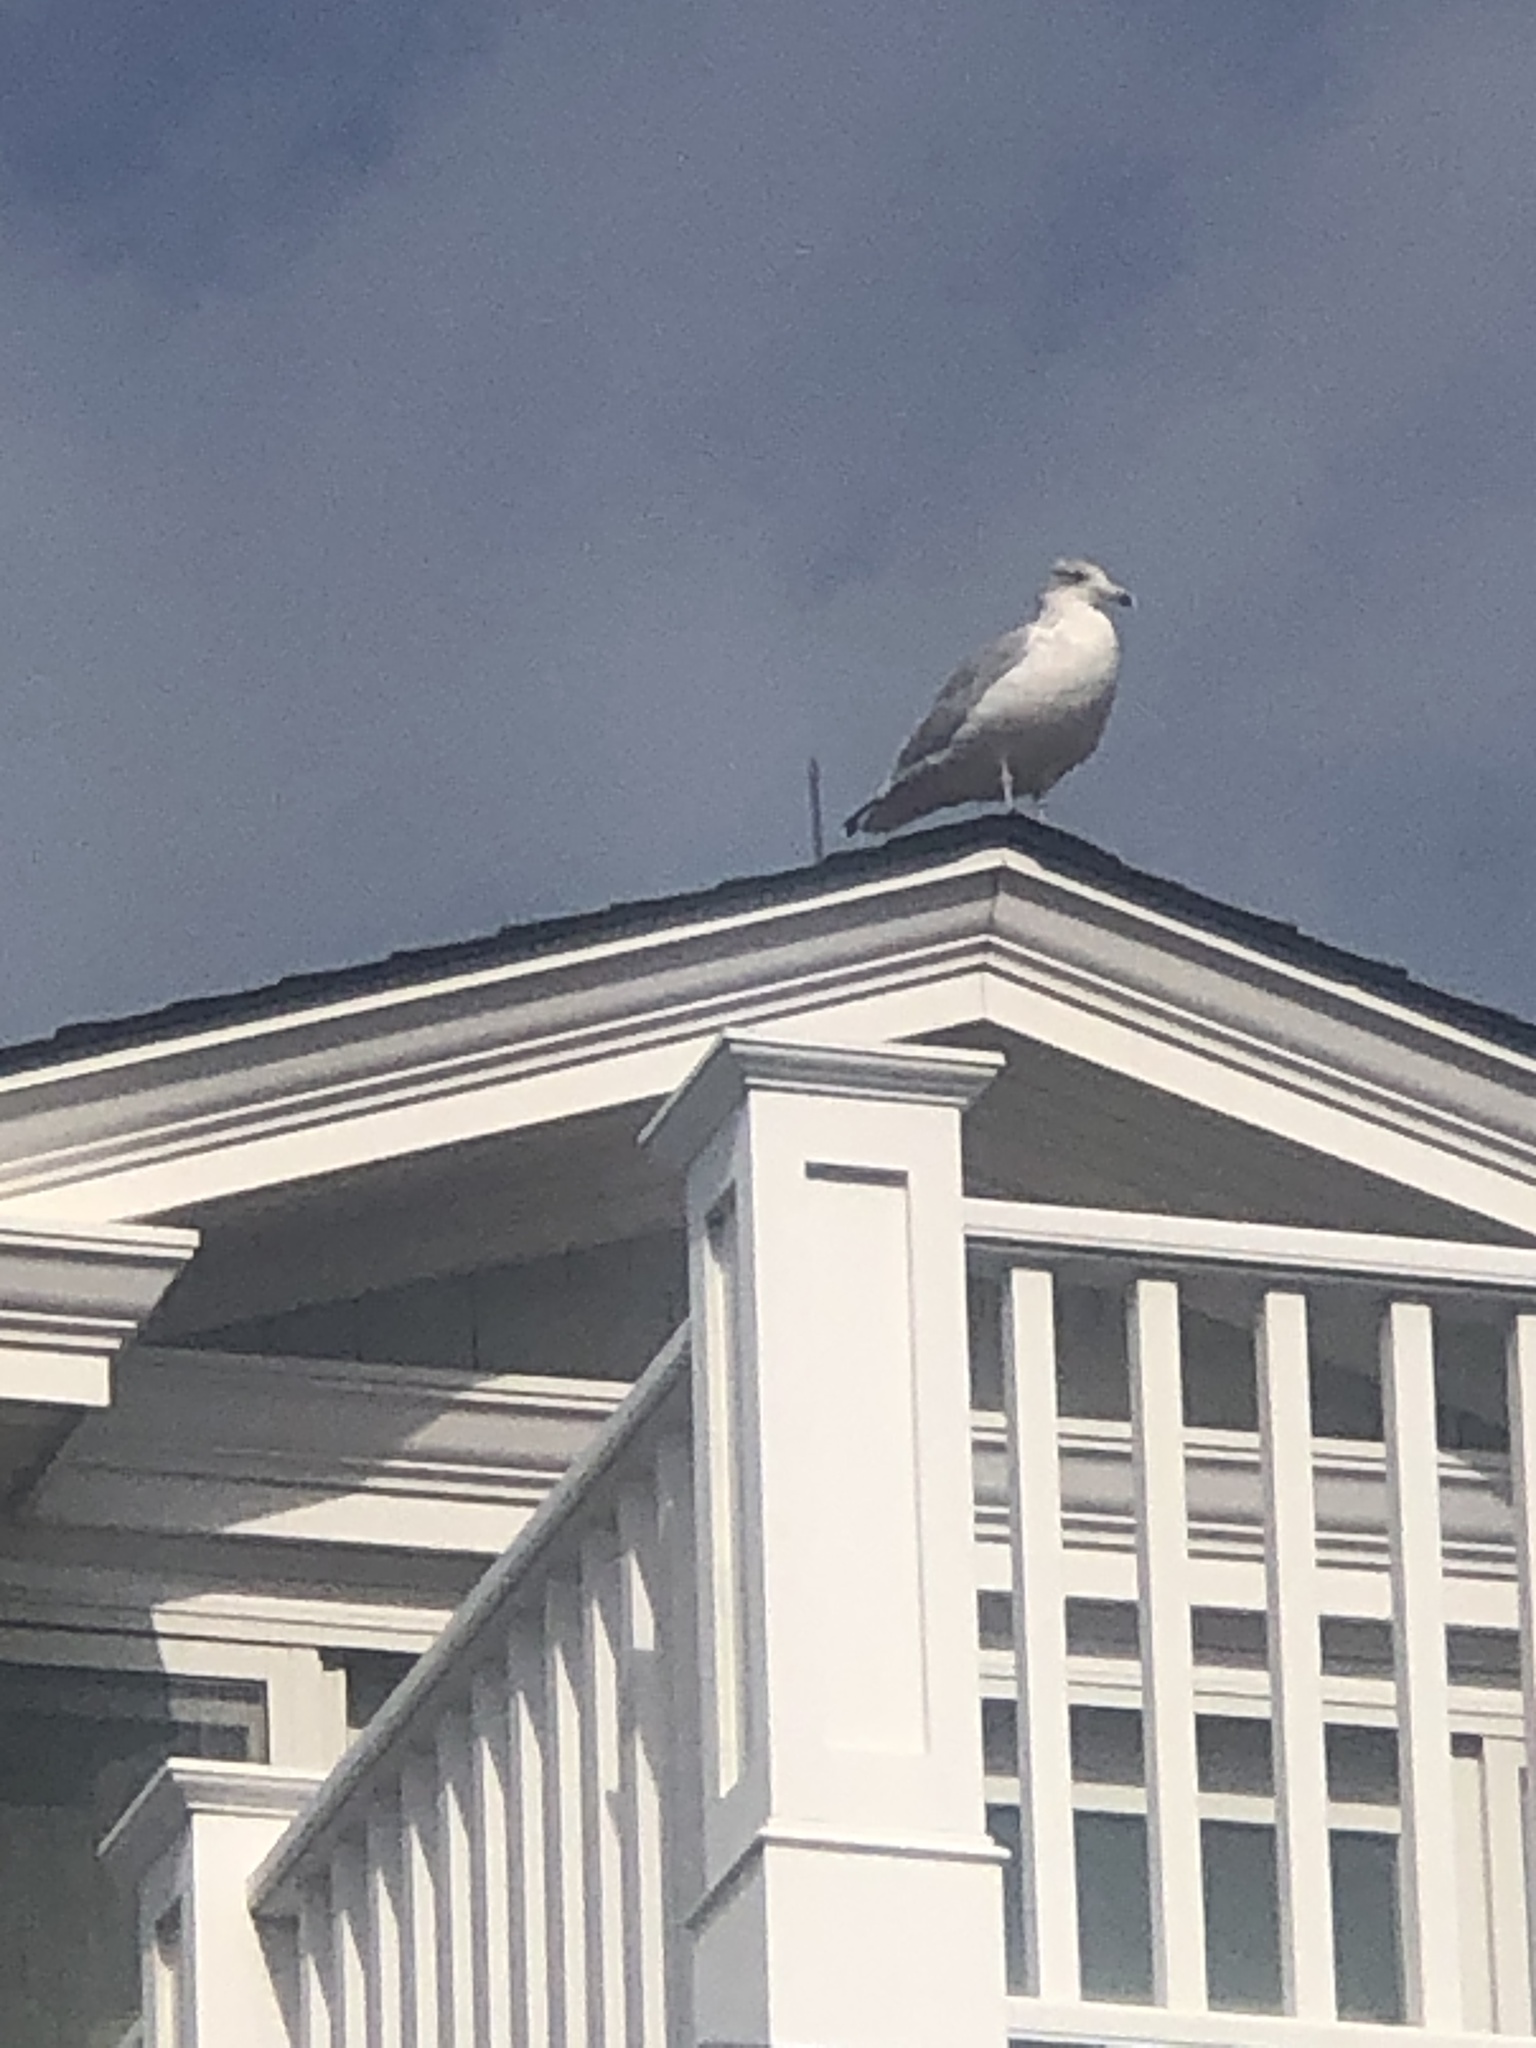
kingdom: Animalia
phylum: Chordata
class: Aves
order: Charadriiformes
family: Laridae
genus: Larus
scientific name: Larus argentatus
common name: Herring gull
